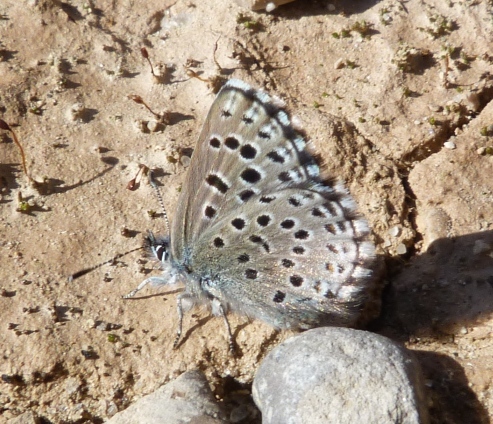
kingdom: Animalia
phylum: Arthropoda
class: Insecta
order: Lepidoptera
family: Lycaenidae
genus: Pseudophilotes
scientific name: Pseudophilotes baton
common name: Baton blue
